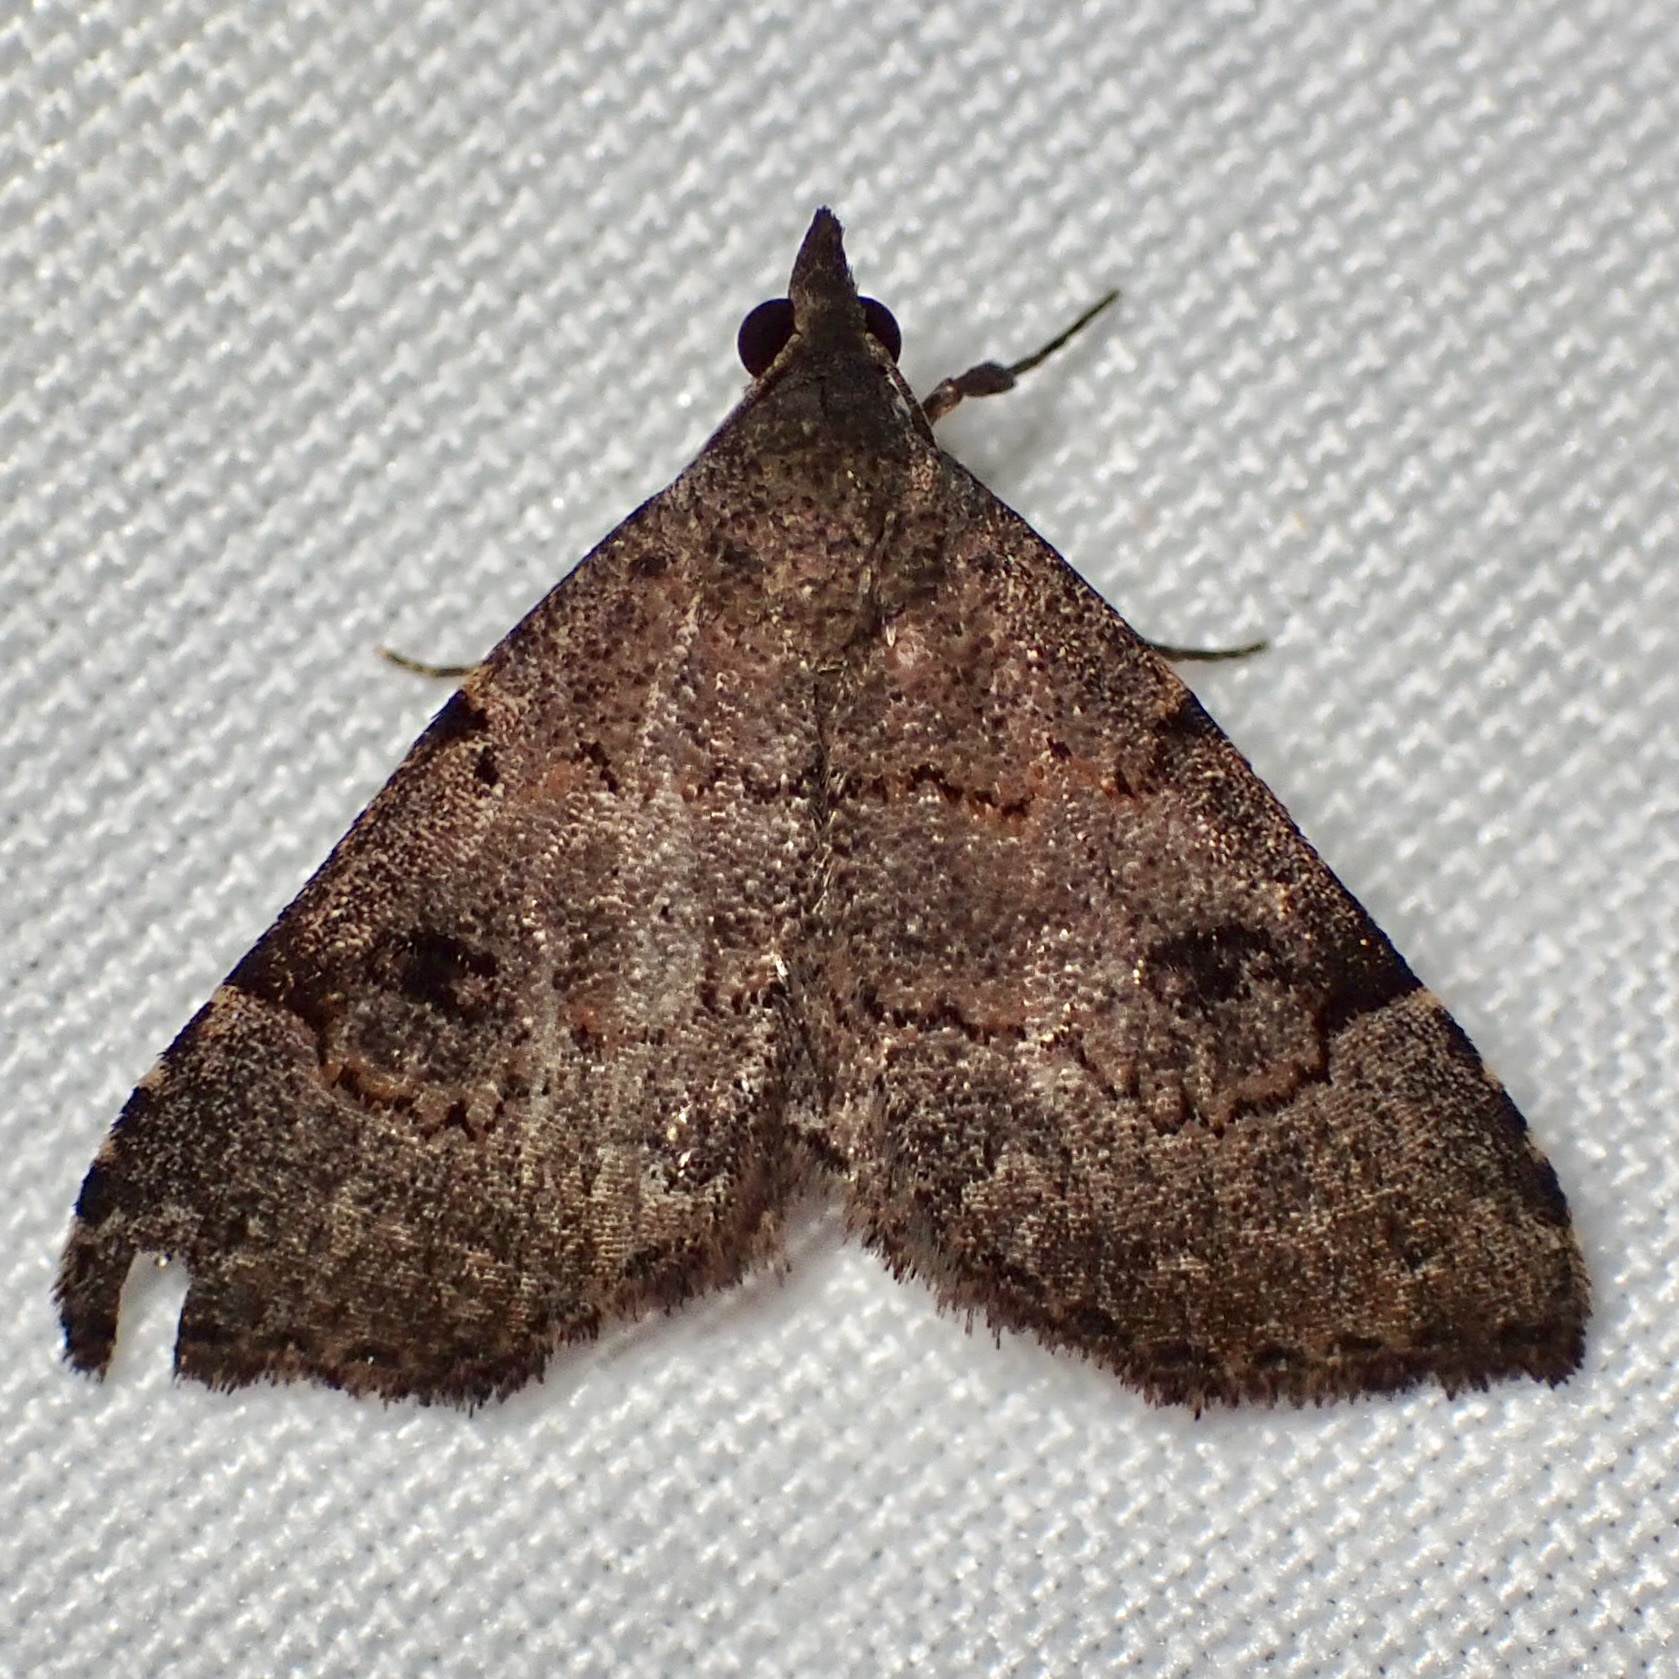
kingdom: Animalia
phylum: Arthropoda
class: Insecta
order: Lepidoptera
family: Erebidae
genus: Nychioptera
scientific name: Nychioptera noctuidalis
